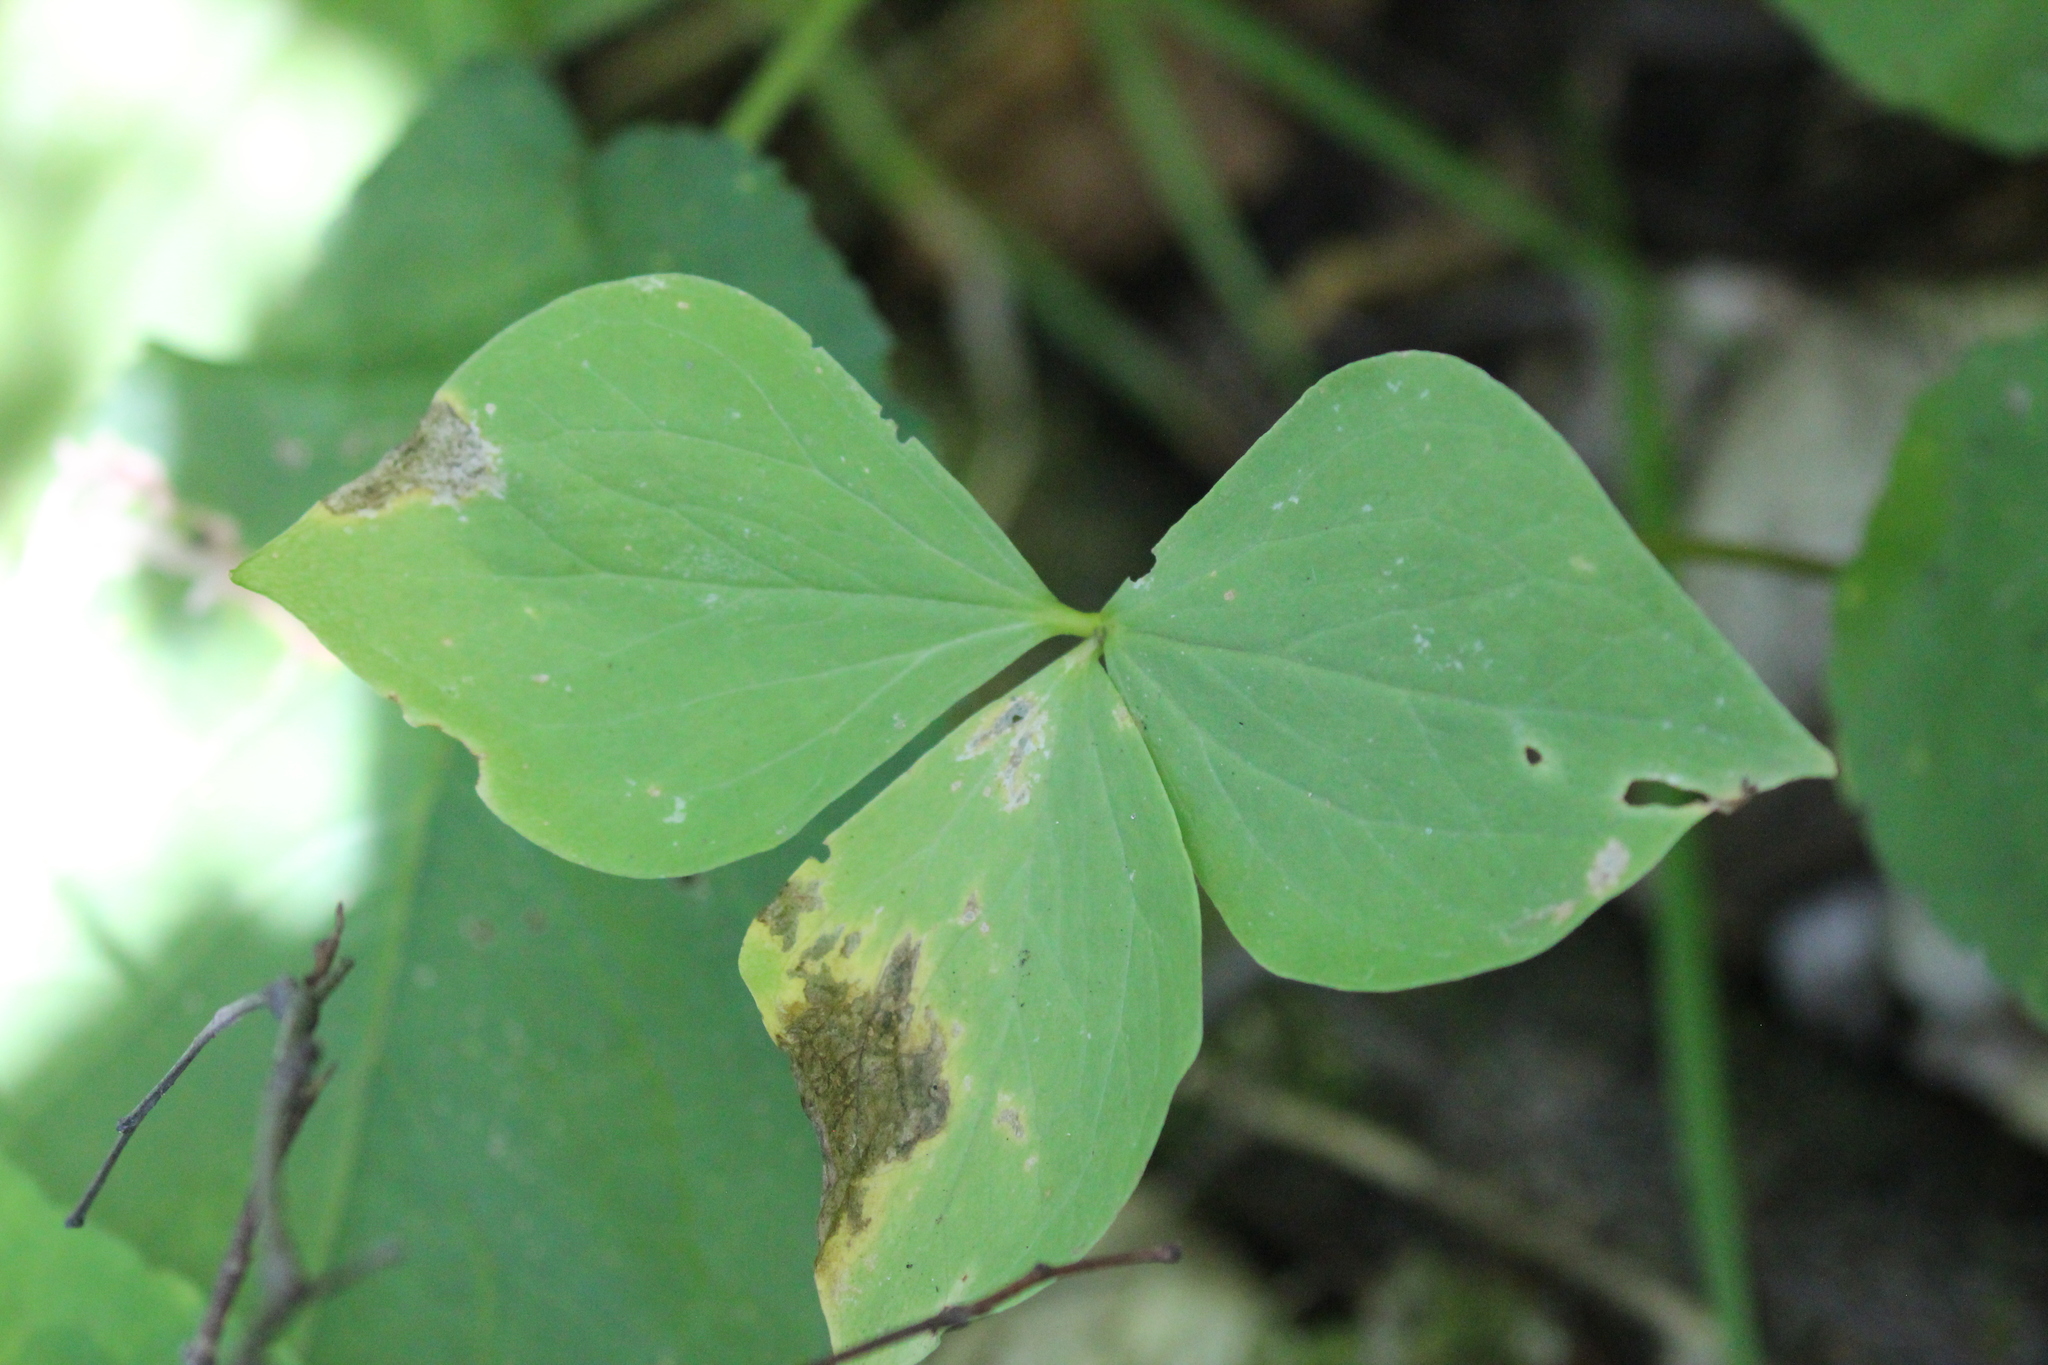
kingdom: Plantae
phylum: Tracheophyta
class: Liliopsida
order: Liliales
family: Melanthiaceae
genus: Trillium
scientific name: Trillium cernuum
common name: Nodding trillium
